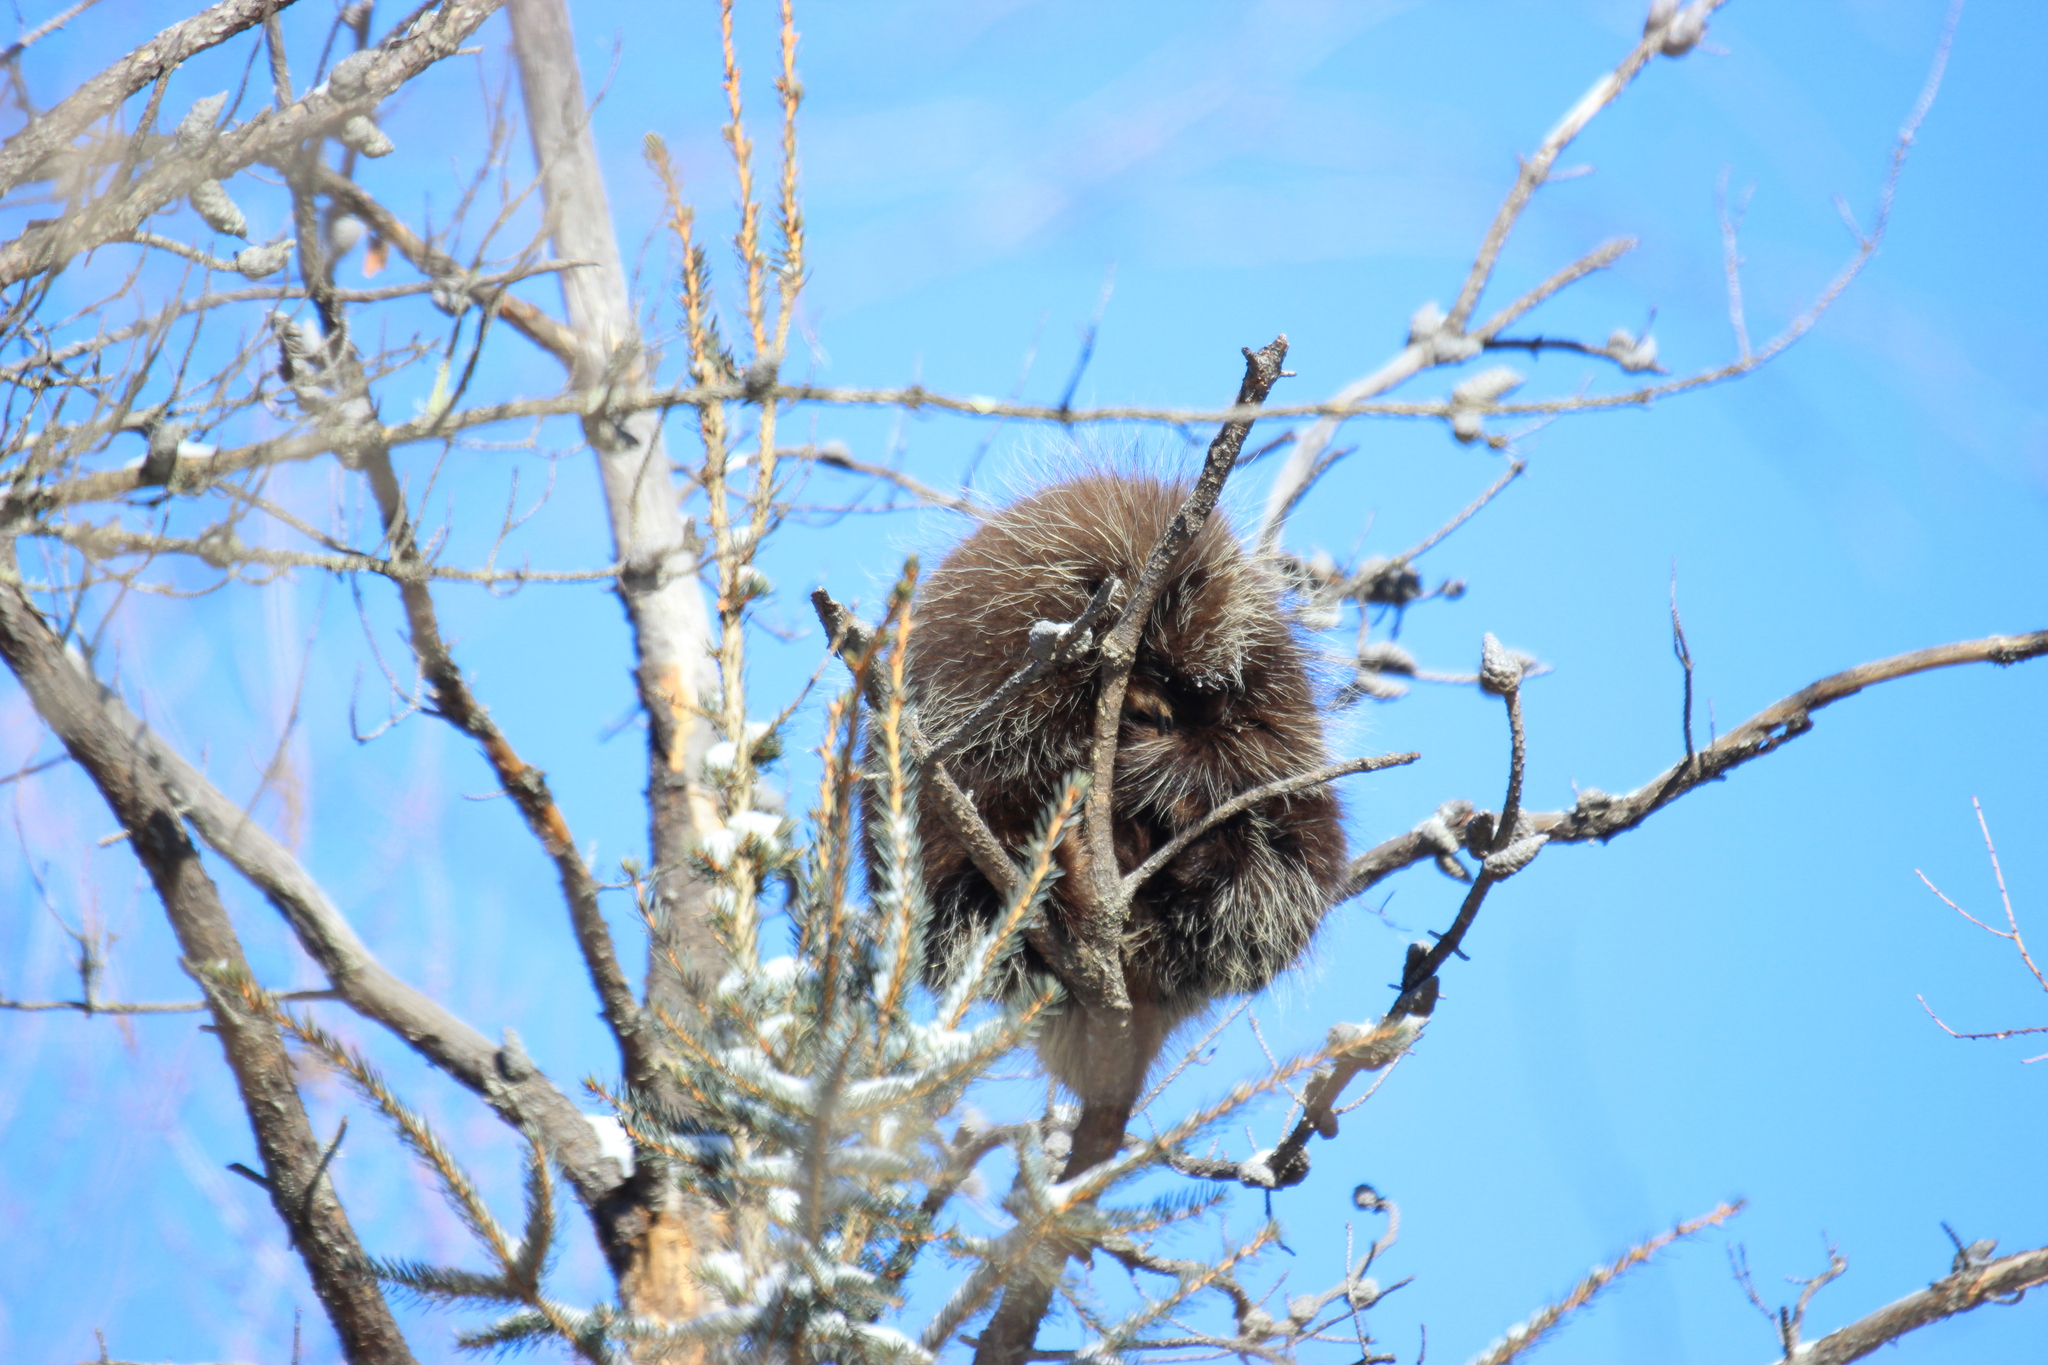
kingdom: Animalia
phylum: Chordata
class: Mammalia
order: Rodentia
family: Erethizontidae
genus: Erethizon
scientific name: Erethizon dorsatus
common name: North american porcupine
